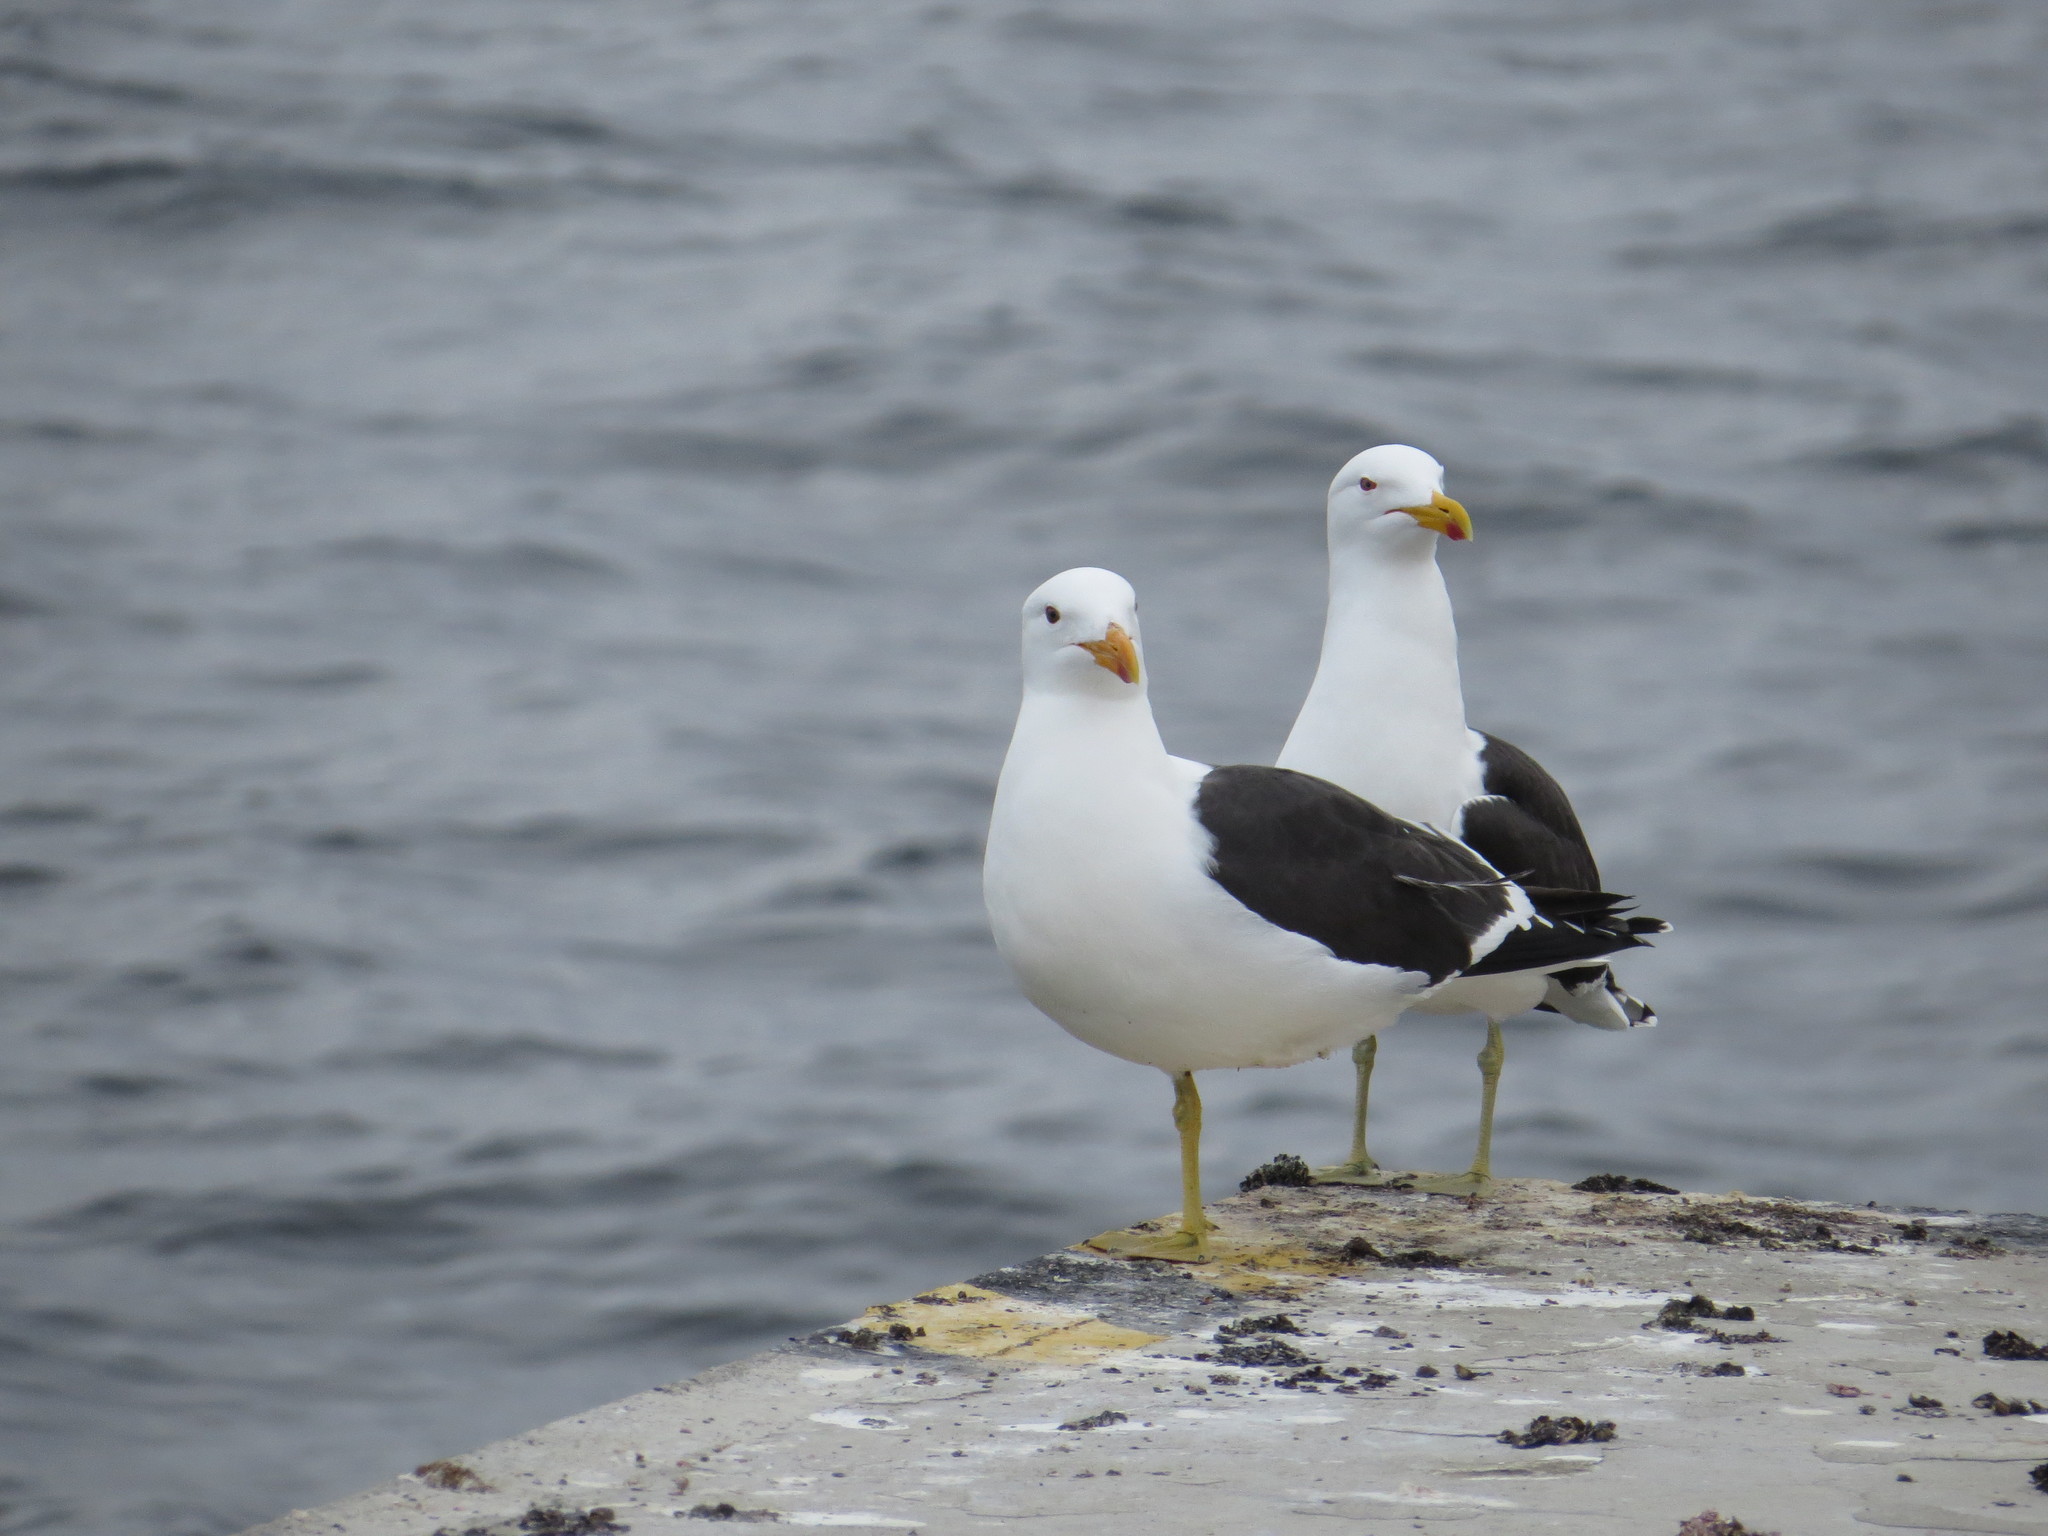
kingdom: Animalia
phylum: Chordata
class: Aves
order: Charadriiformes
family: Laridae
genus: Larus
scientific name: Larus dominicanus
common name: Kelp gull
